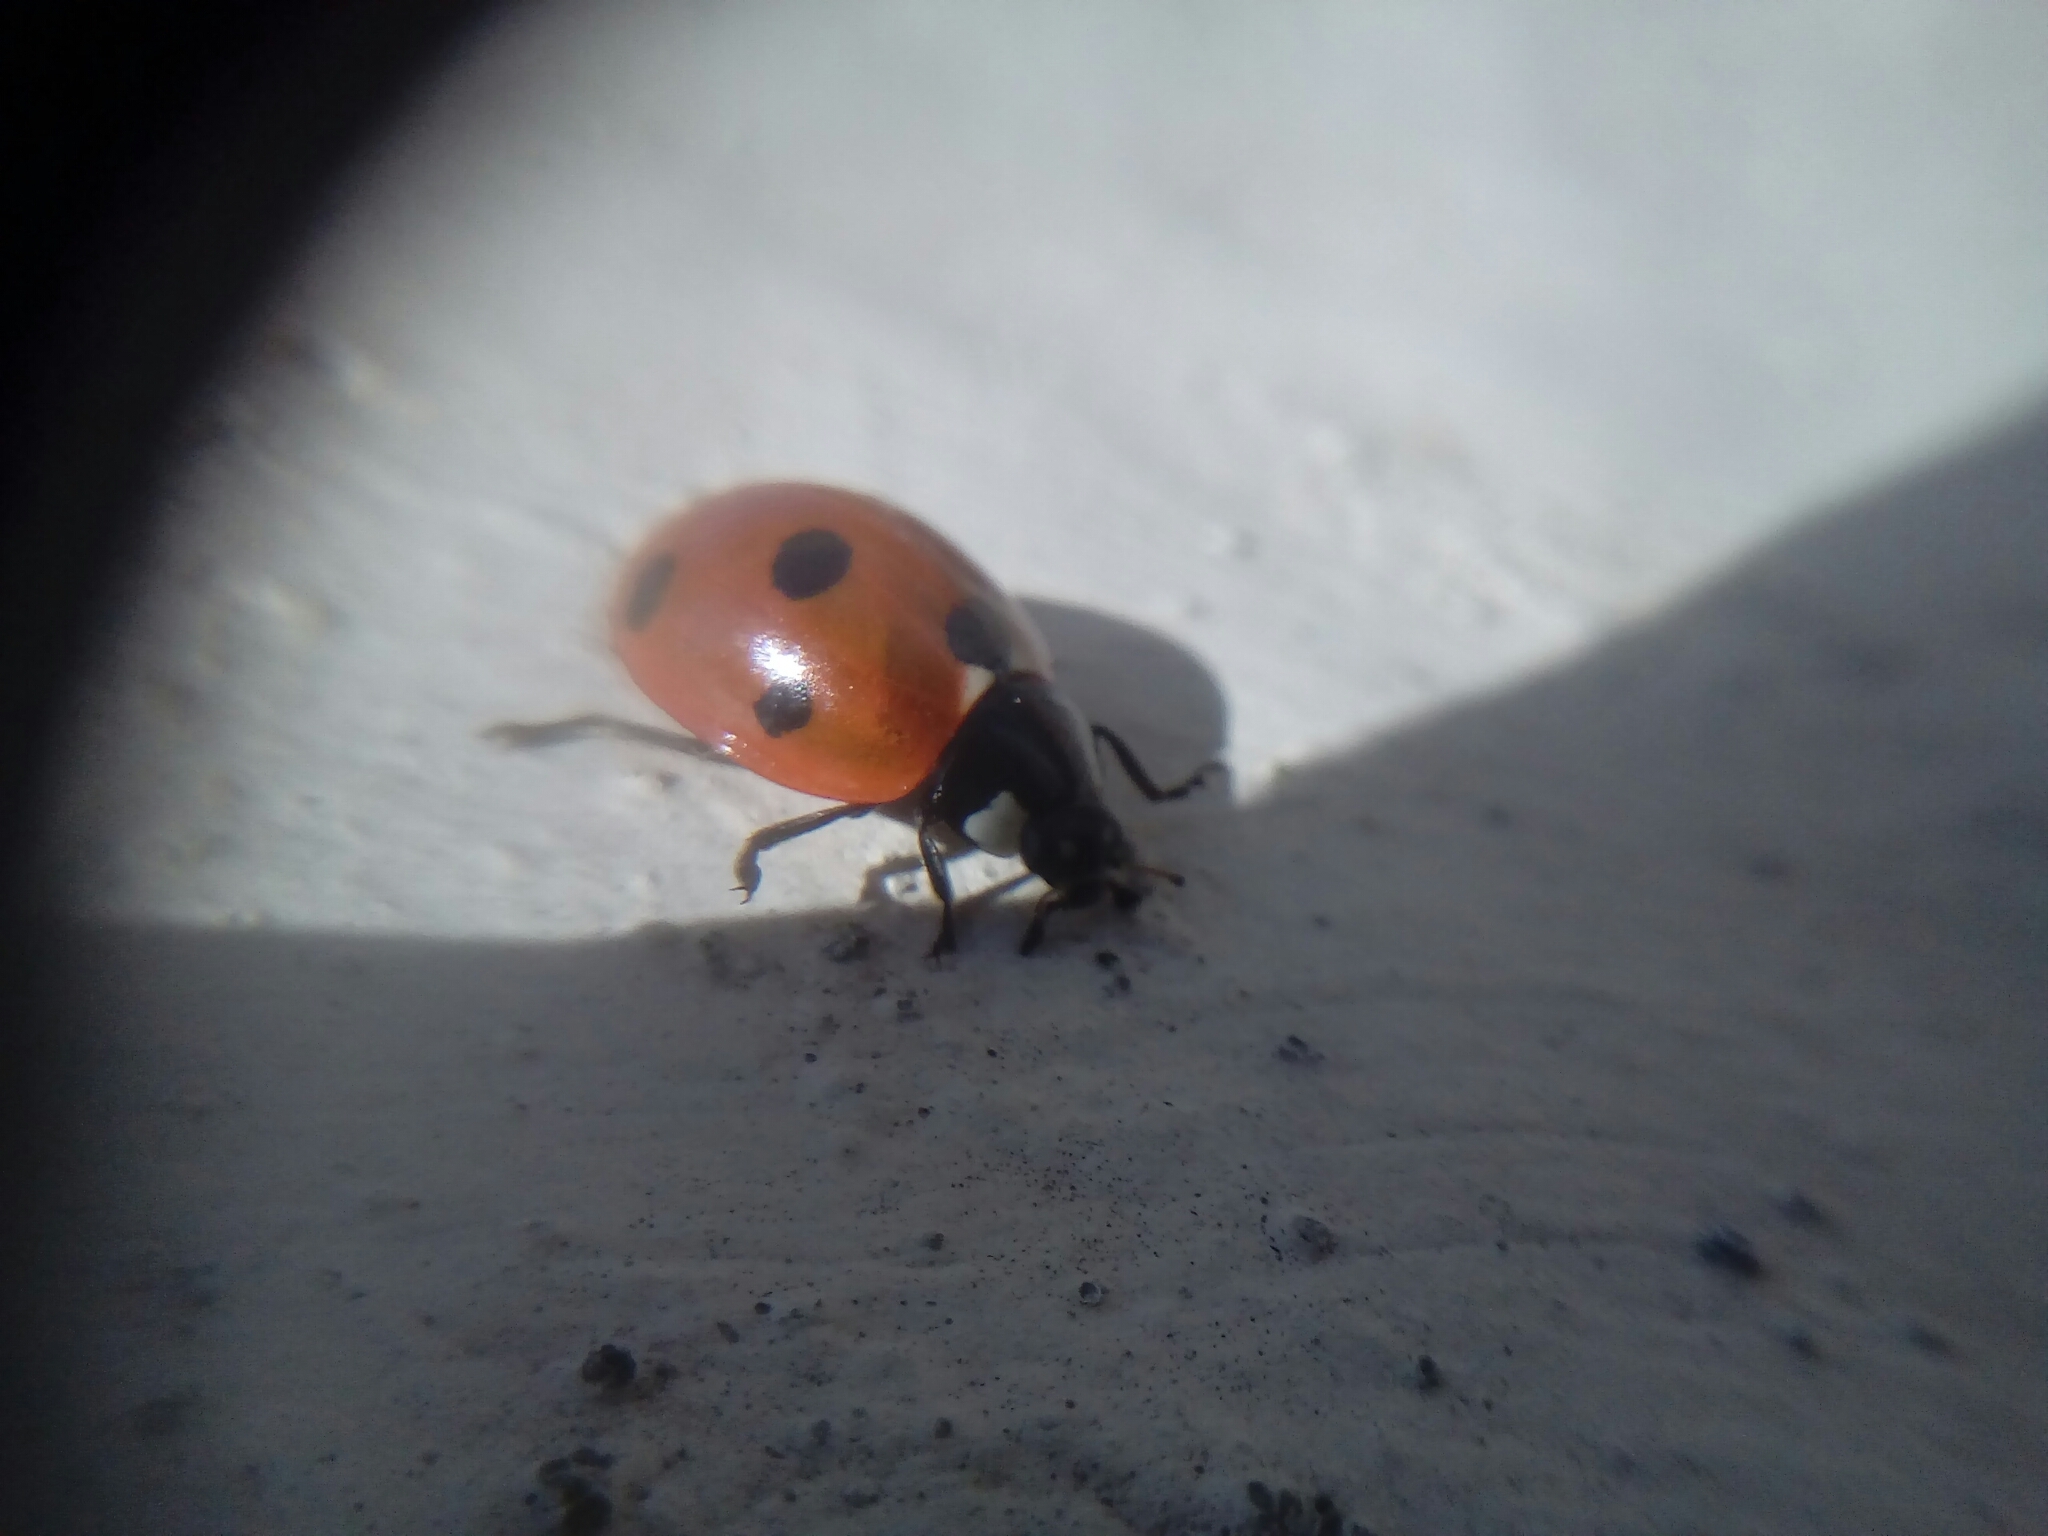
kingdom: Animalia
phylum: Arthropoda
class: Insecta
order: Coleoptera
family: Coccinellidae
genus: Coccinella
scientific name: Coccinella septempunctata
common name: Sevenspotted lady beetle
